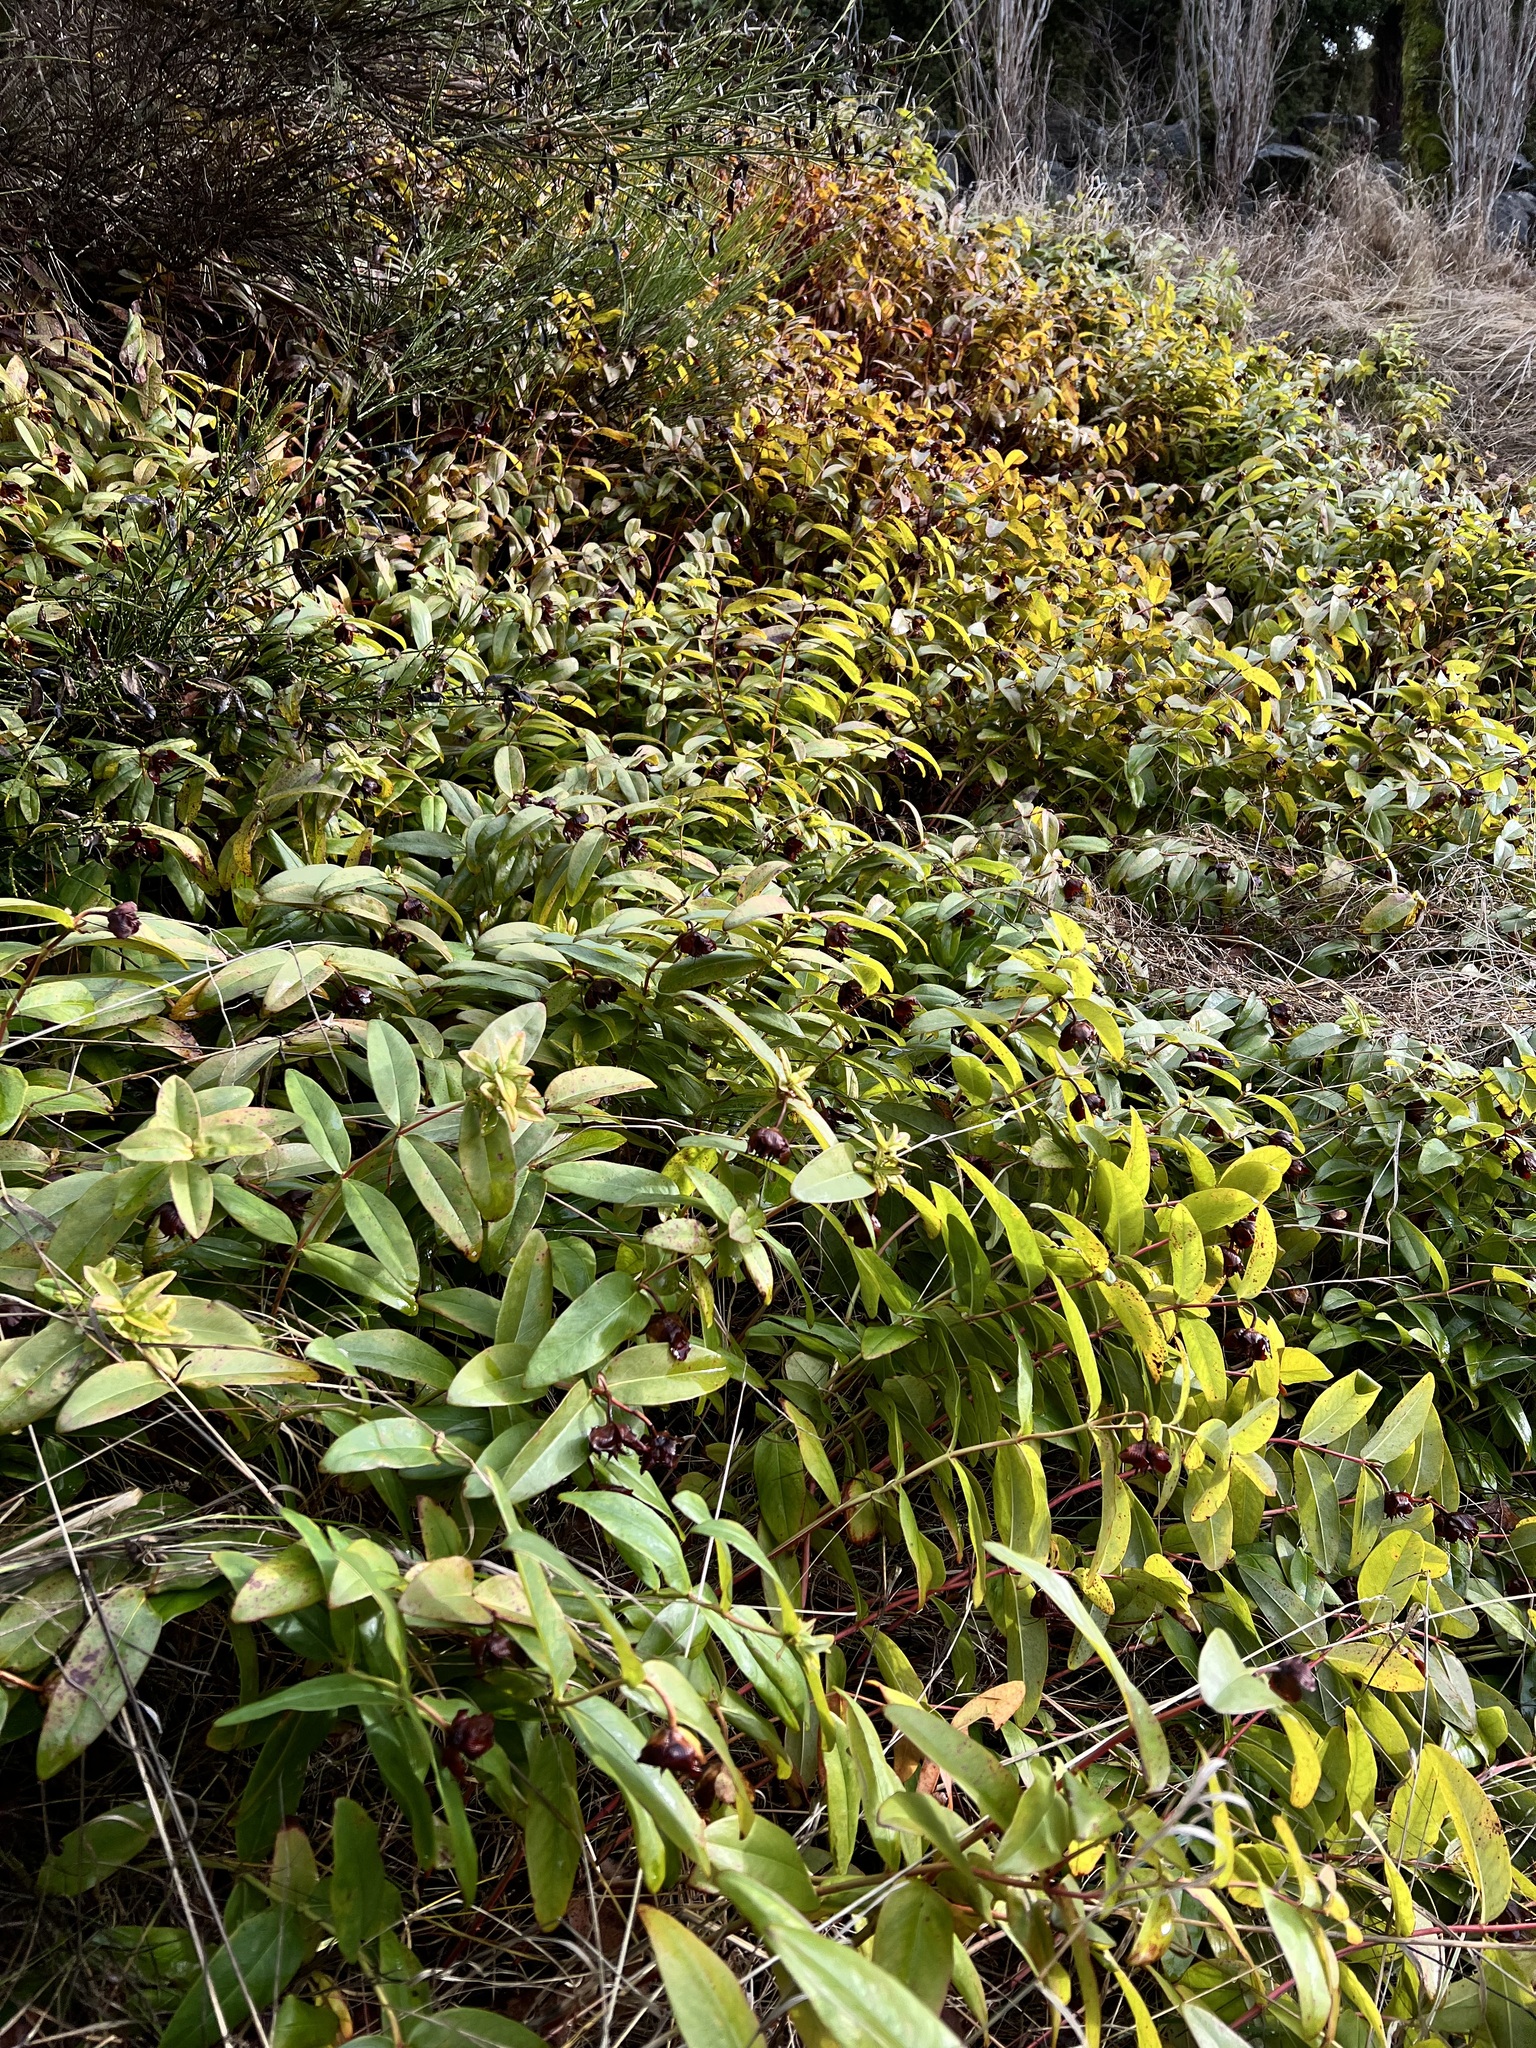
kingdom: Plantae
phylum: Tracheophyta
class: Magnoliopsida
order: Malpighiales
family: Hypericaceae
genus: Hypericum
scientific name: Hypericum calycinum
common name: Rose-of-sharon
